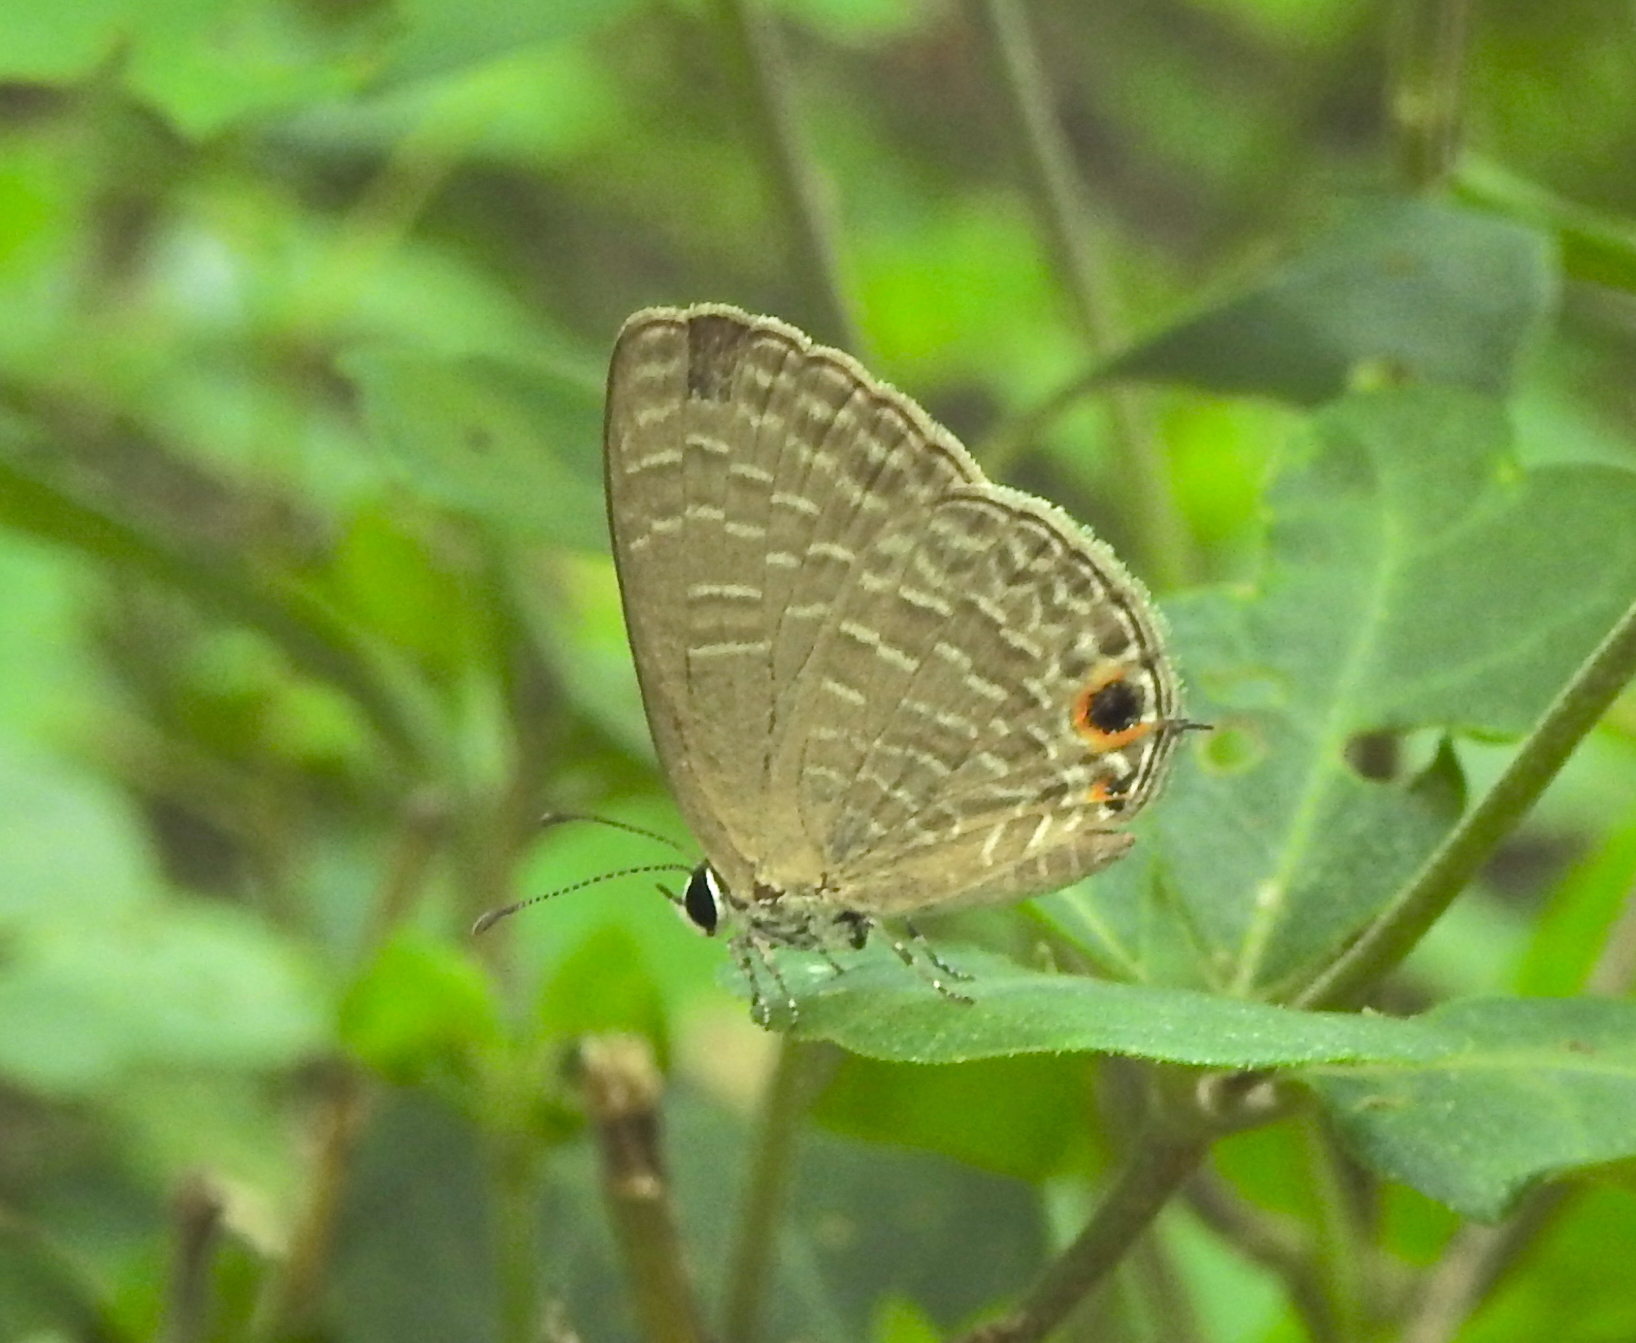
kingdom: Animalia
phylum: Arthropoda
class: Insecta
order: Lepidoptera
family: Lycaenidae
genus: Jamides
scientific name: Jamides bochus
